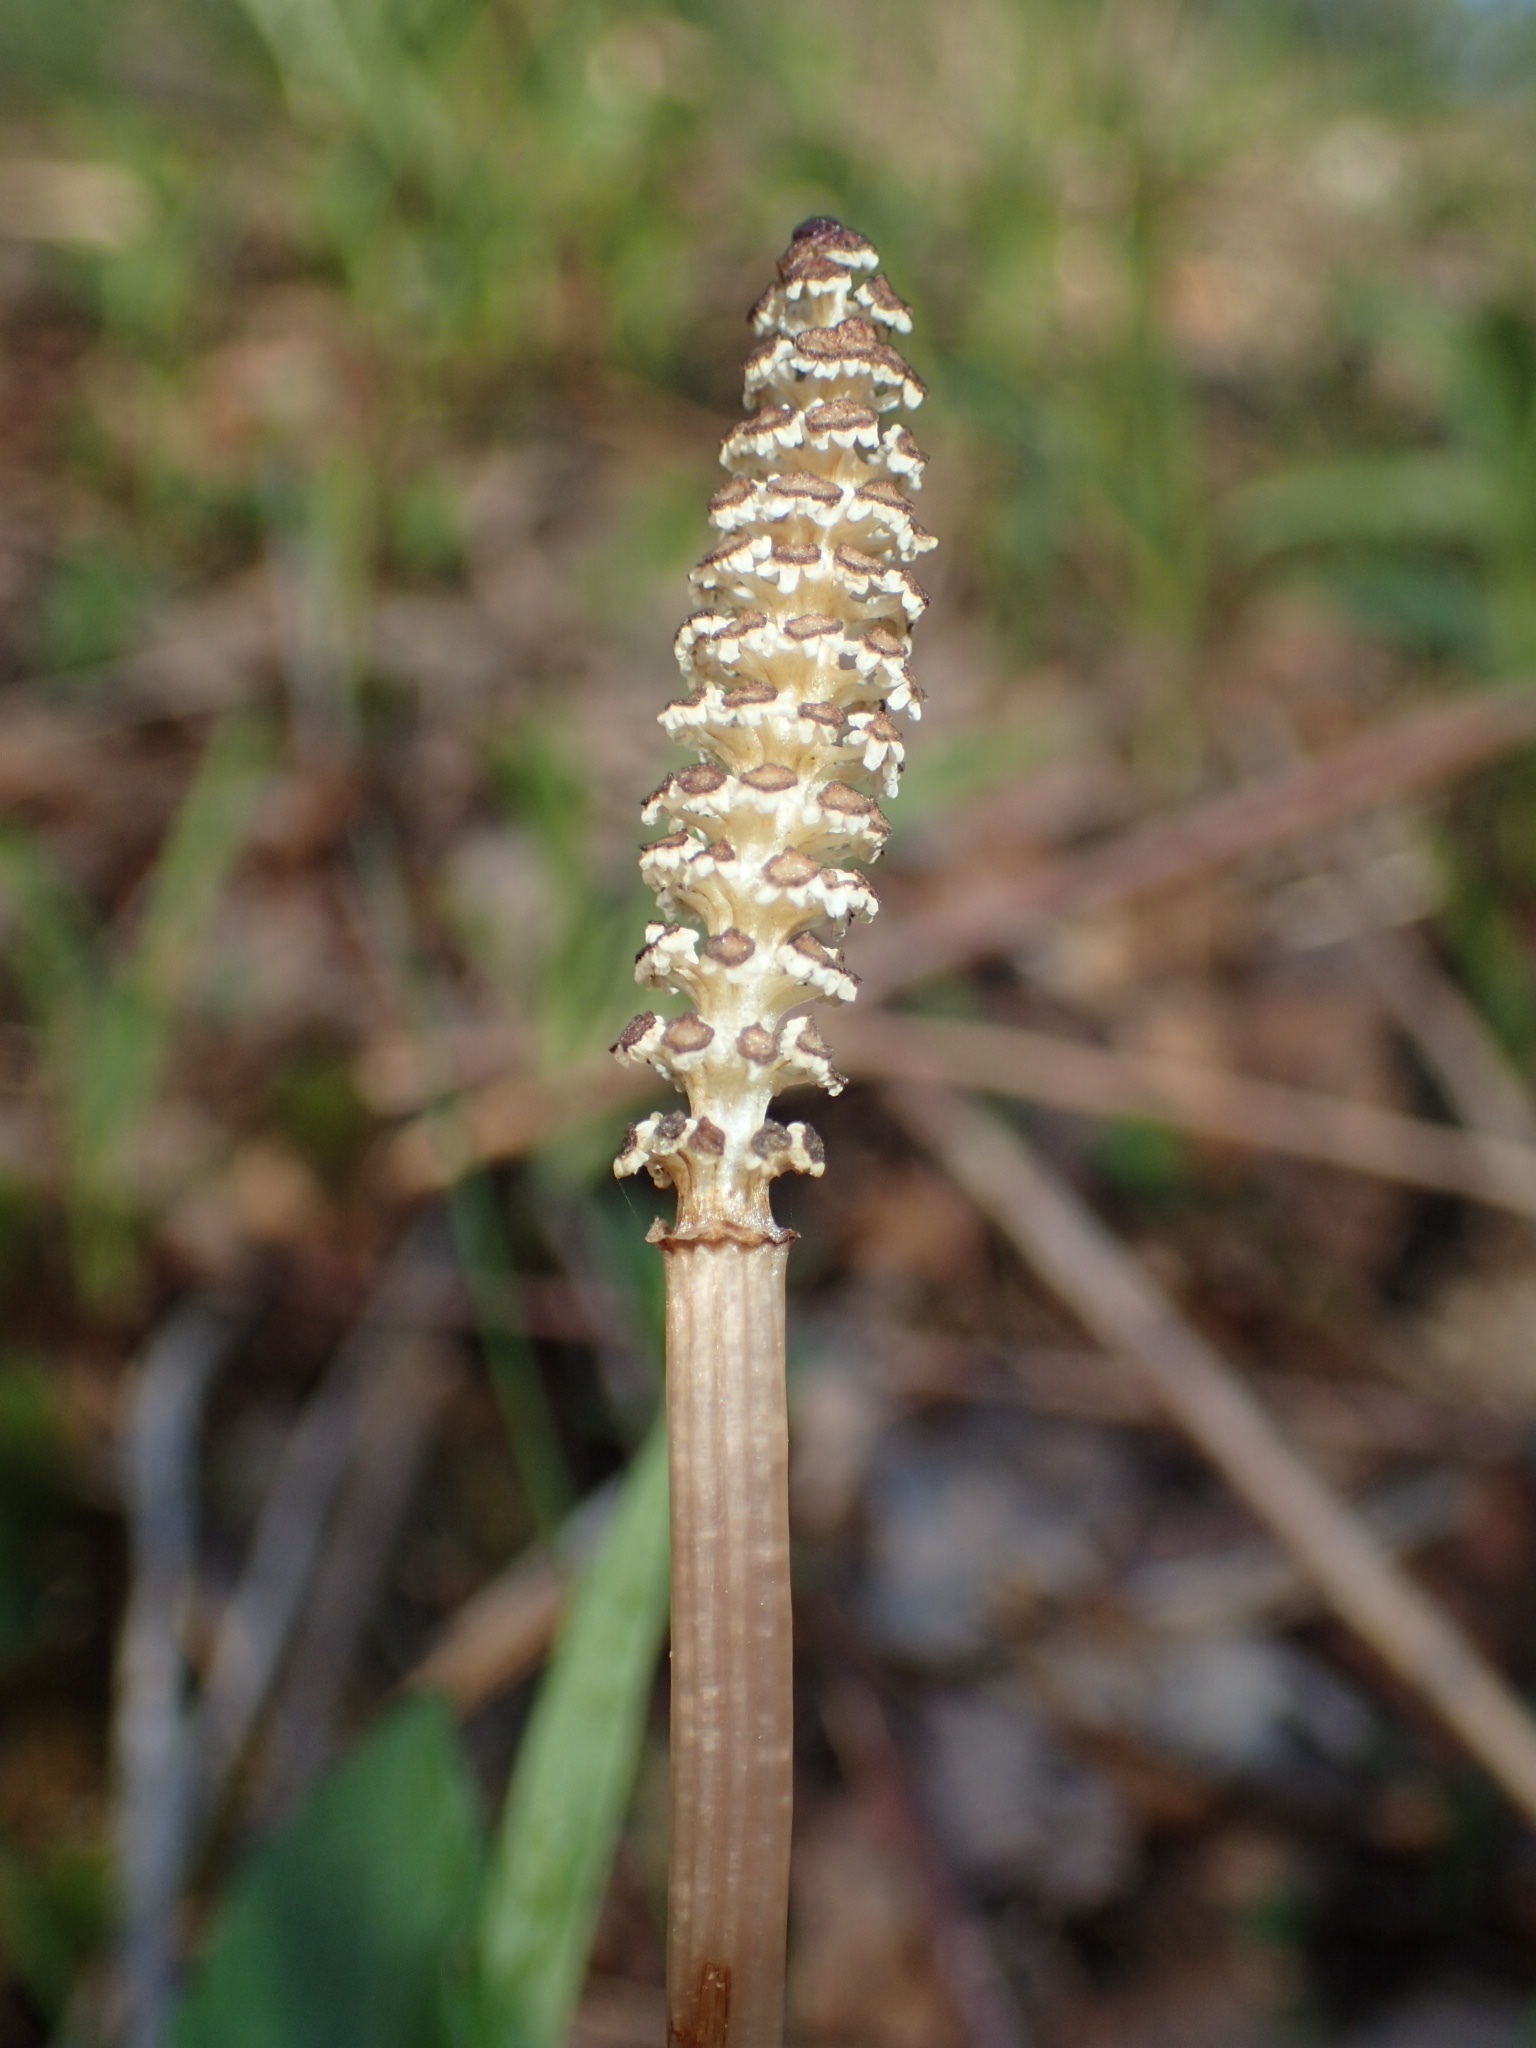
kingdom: Plantae
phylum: Tracheophyta
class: Polypodiopsida
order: Equisetales
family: Equisetaceae
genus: Equisetum
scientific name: Equisetum arvense
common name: Field horsetail
